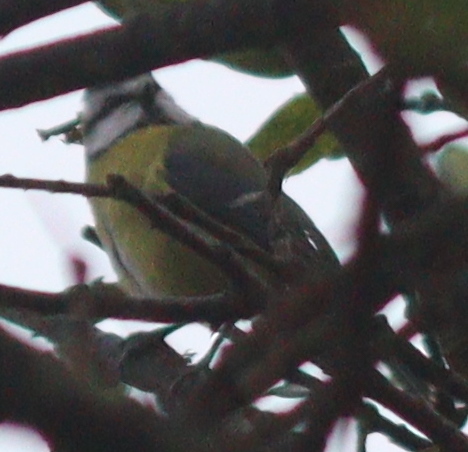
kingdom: Animalia
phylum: Chordata
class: Aves
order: Passeriformes
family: Paridae
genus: Cyanistes
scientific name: Cyanistes caeruleus
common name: Eurasian blue tit
